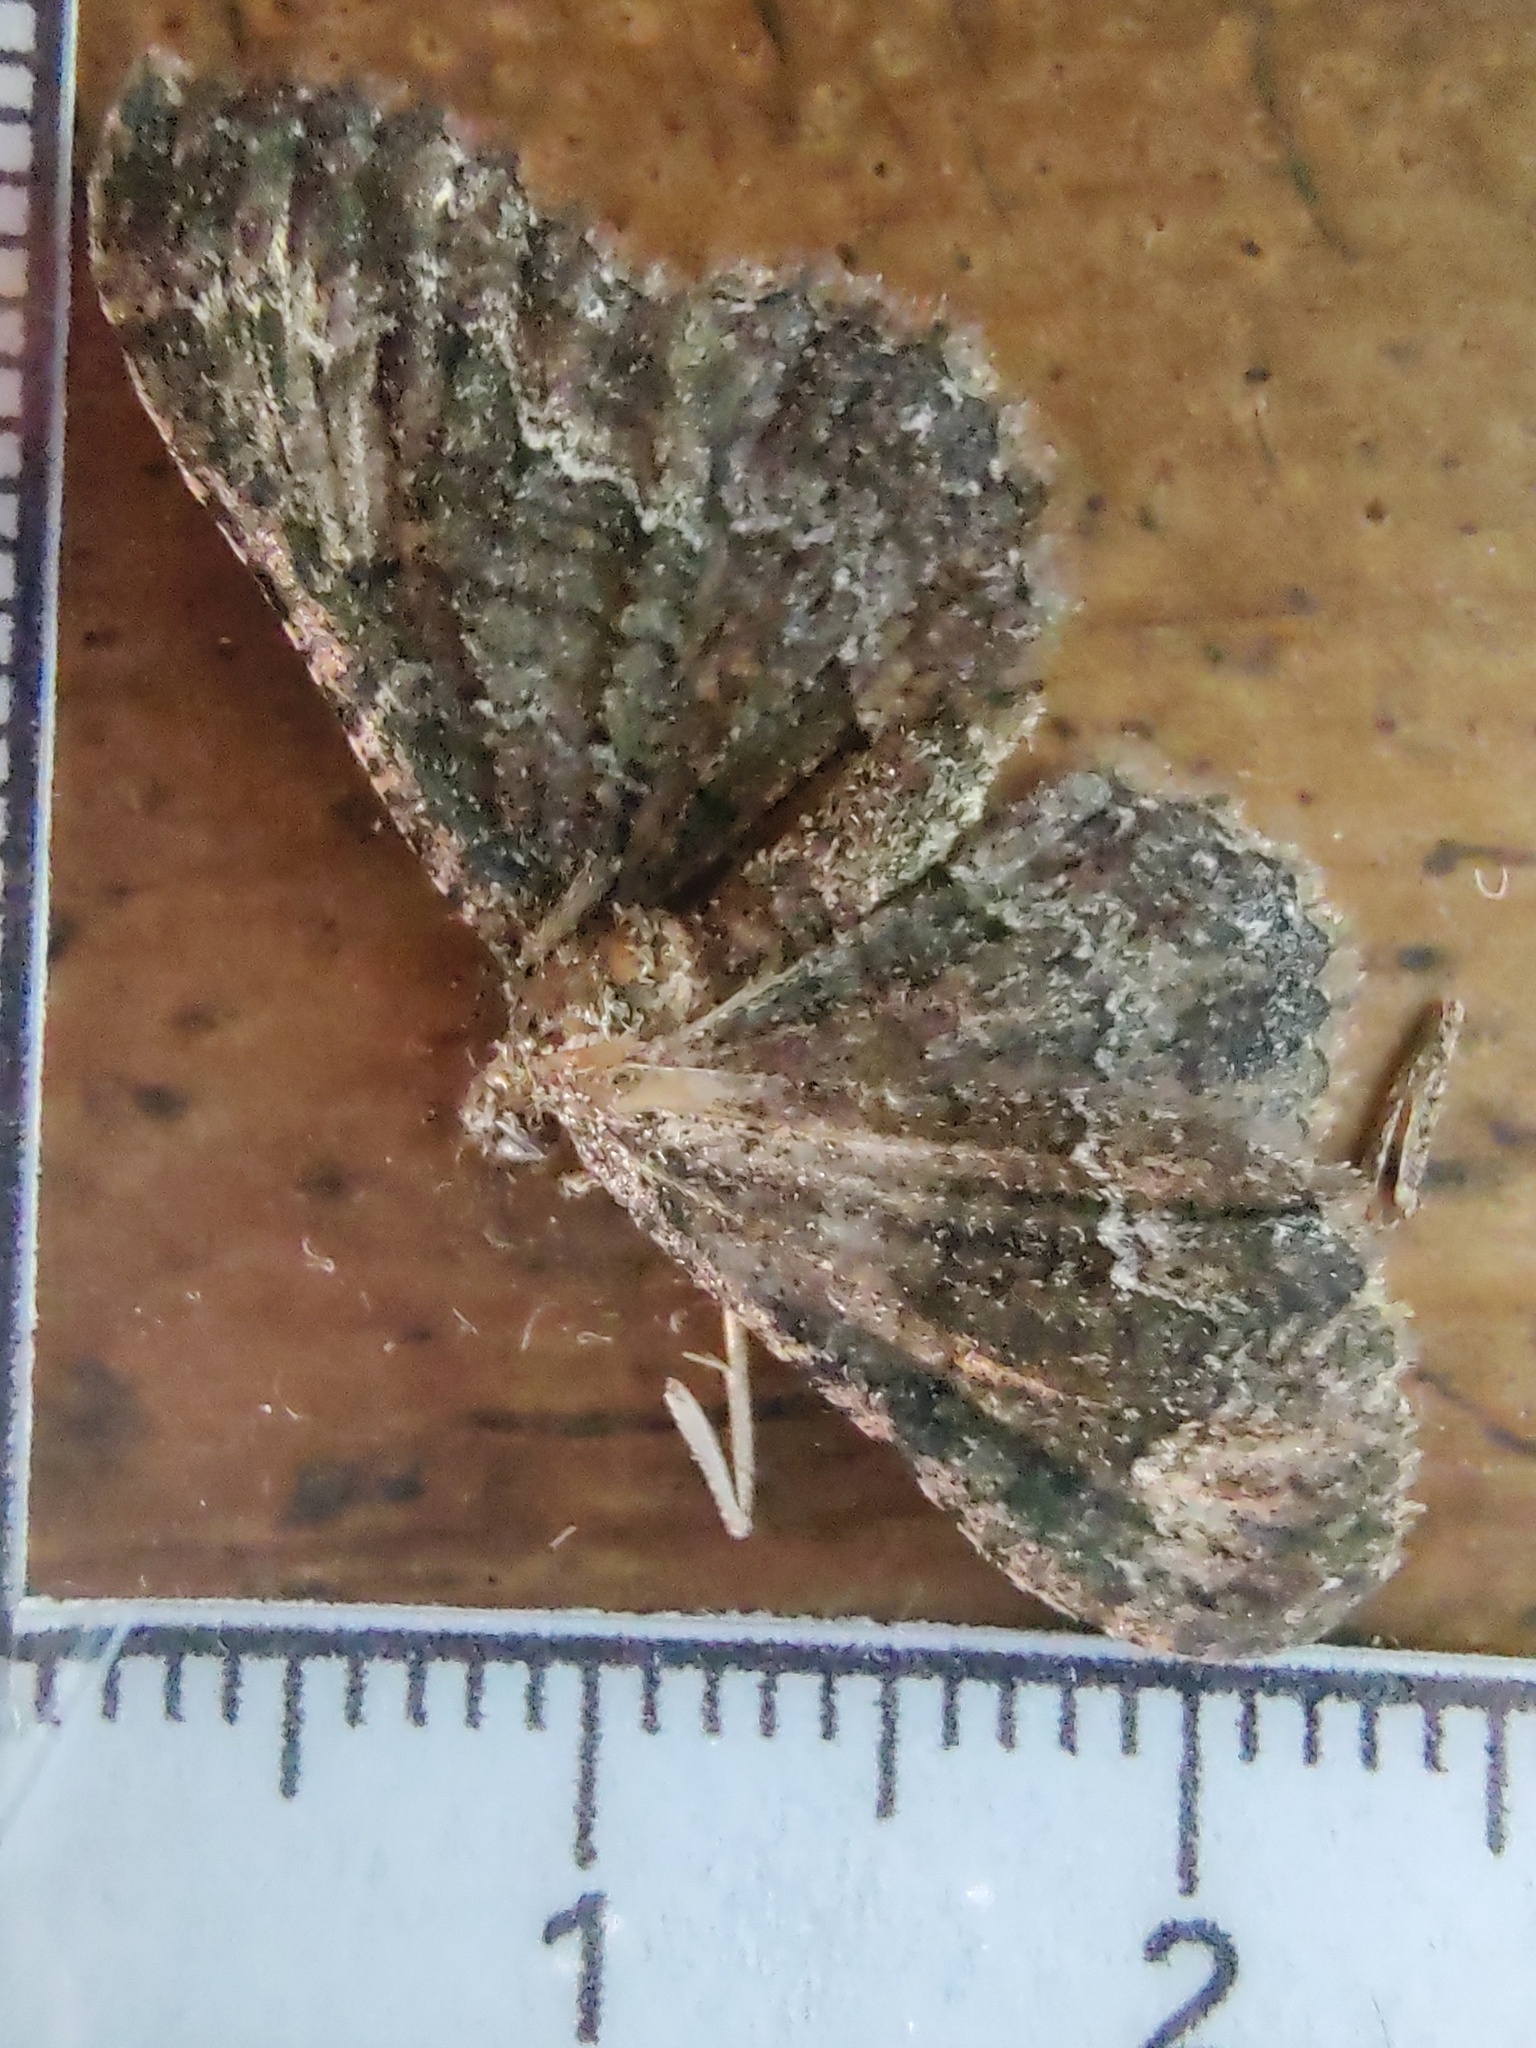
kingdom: Animalia
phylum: Arthropoda
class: Insecta
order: Lepidoptera
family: Geometridae
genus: Disclisioprocta
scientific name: Disclisioprocta stellata
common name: Somber carpet
